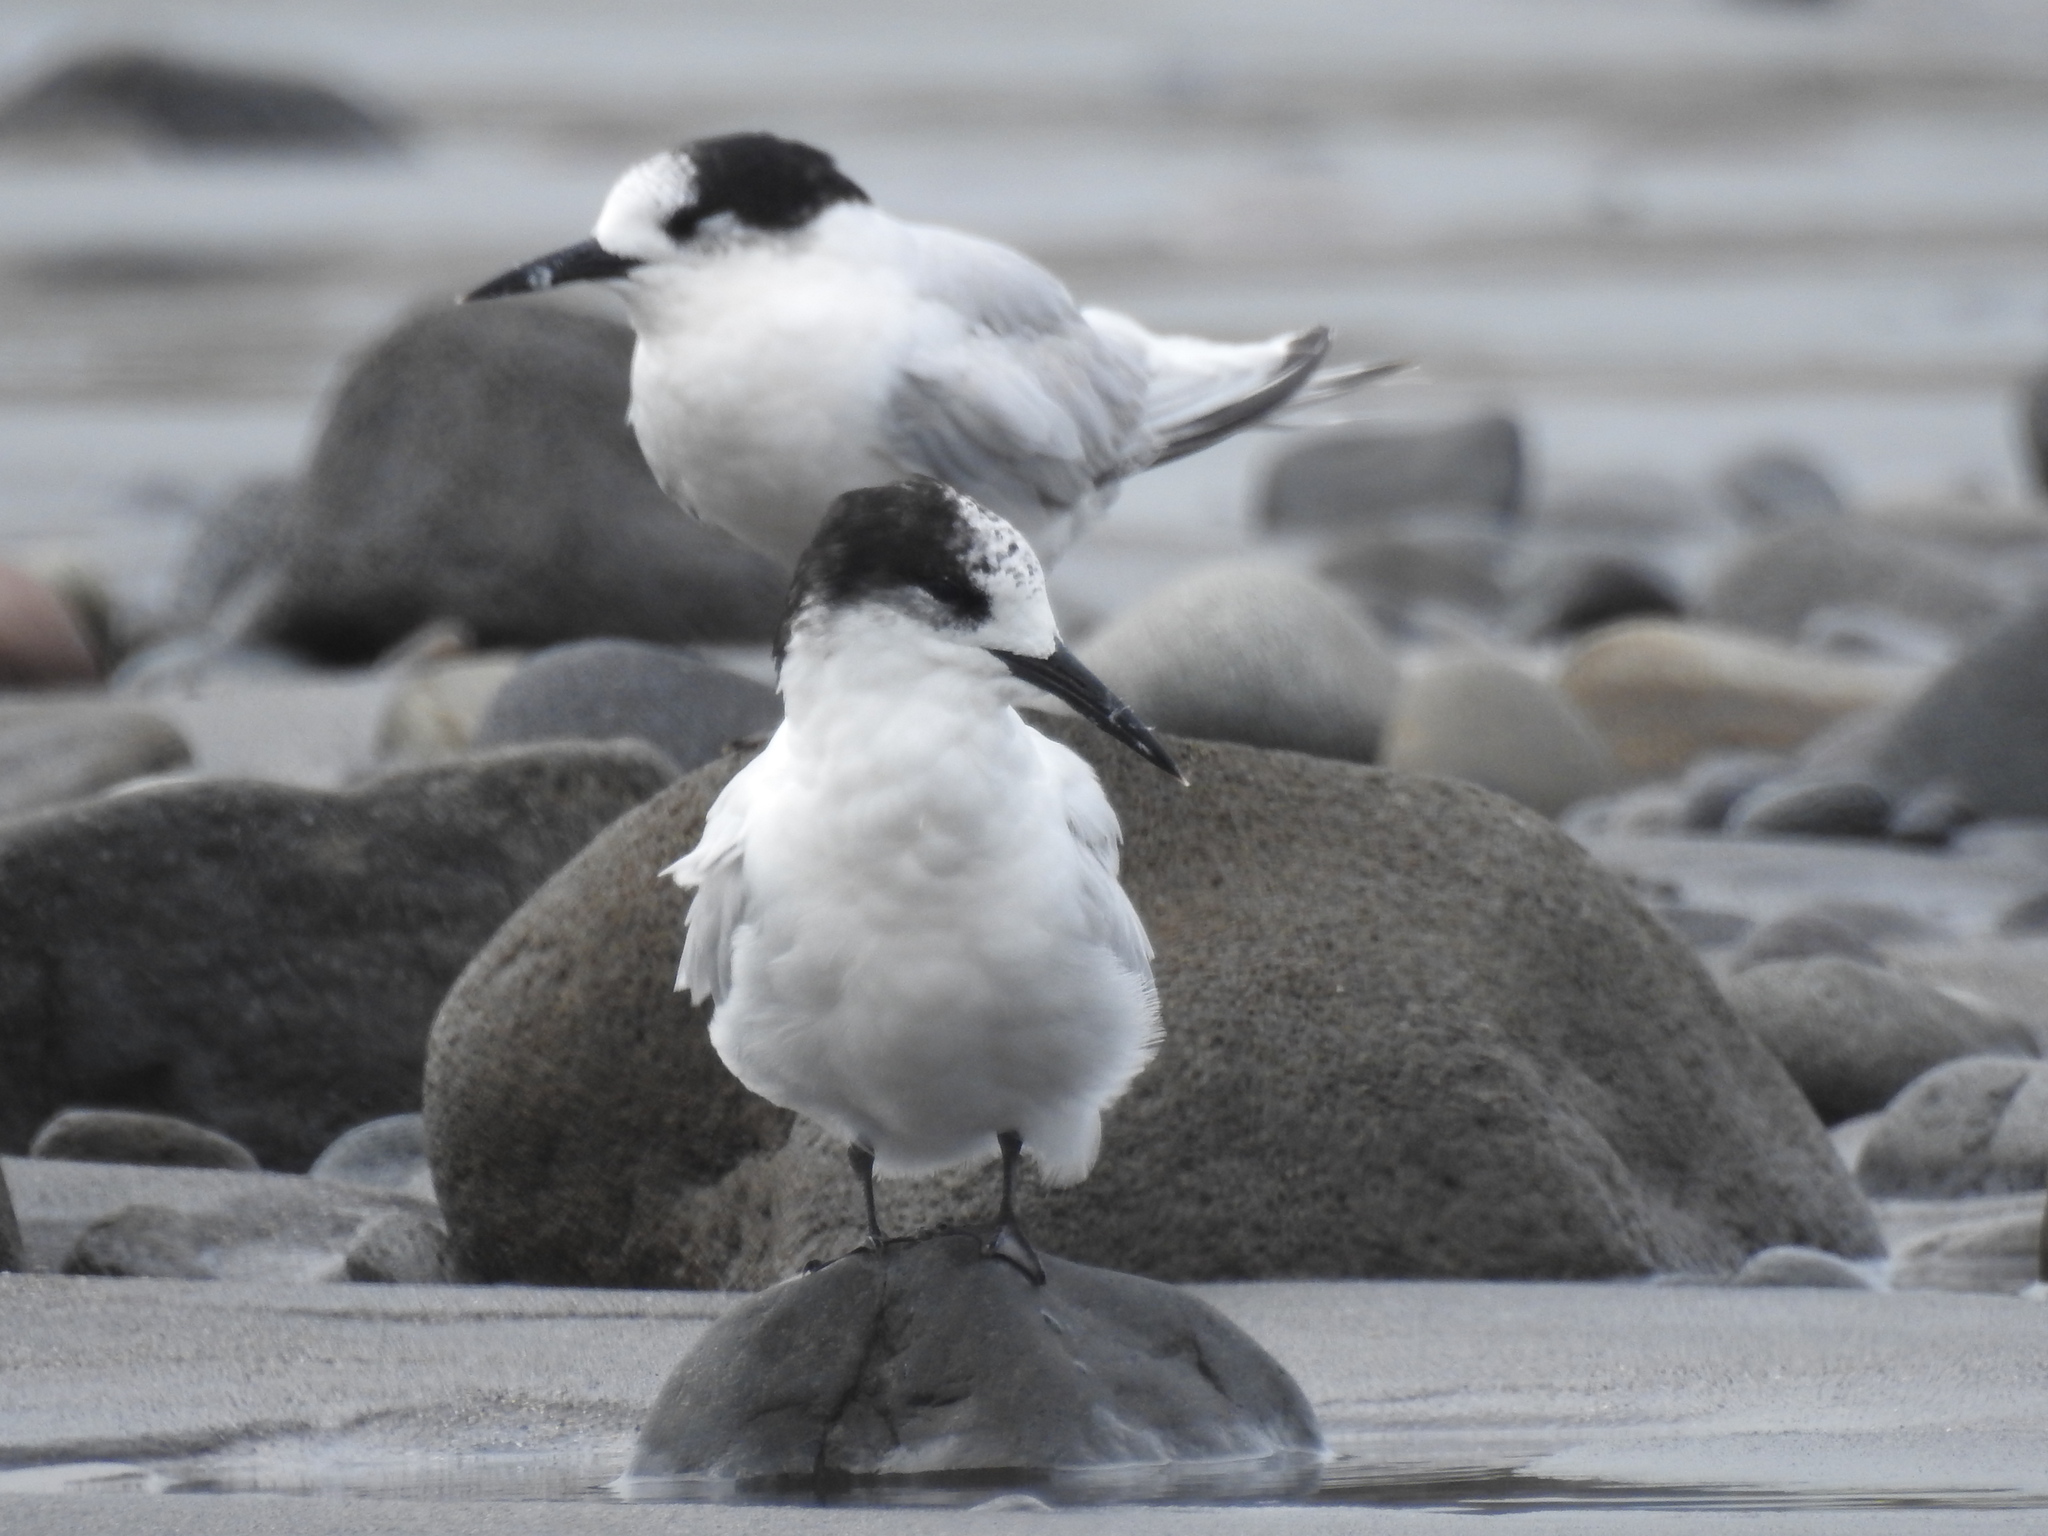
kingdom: Animalia
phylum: Chordata
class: Aves
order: Charadriiformes
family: Laridae
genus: Sterna
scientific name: Sterna striata
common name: White-fronted tern
